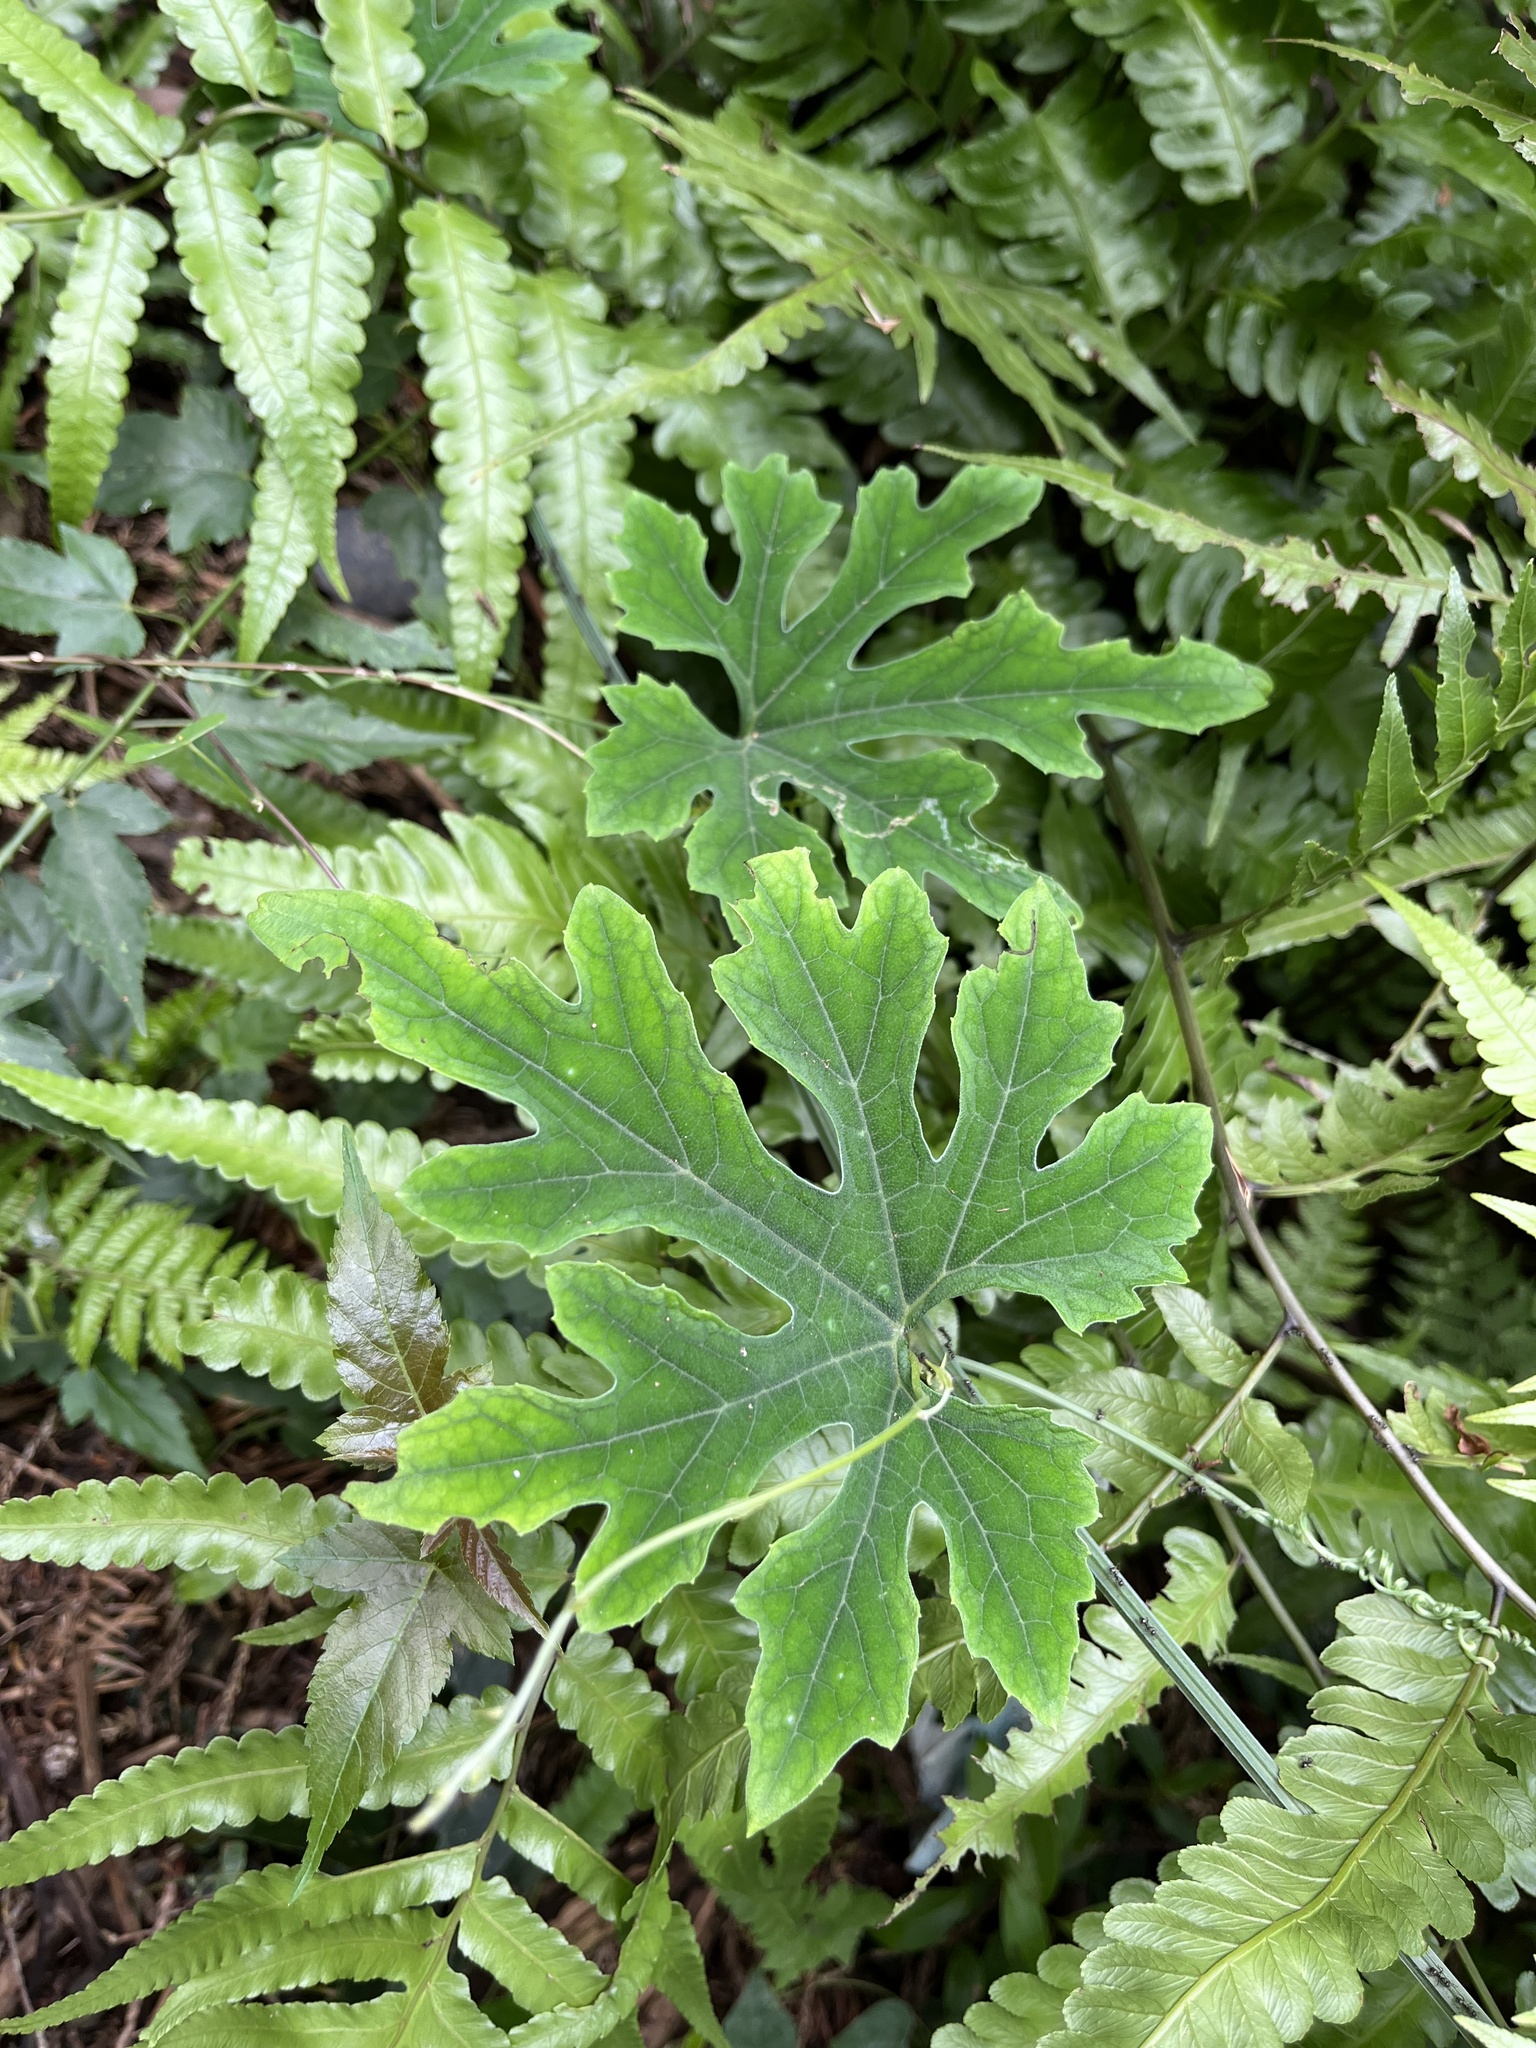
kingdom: Plantae
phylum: Tracheophyta
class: Magnoliopsida
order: Cucurbitales
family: Cucurbitaceae
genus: Trichosanthes
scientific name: Trichosanthes laceribractea
